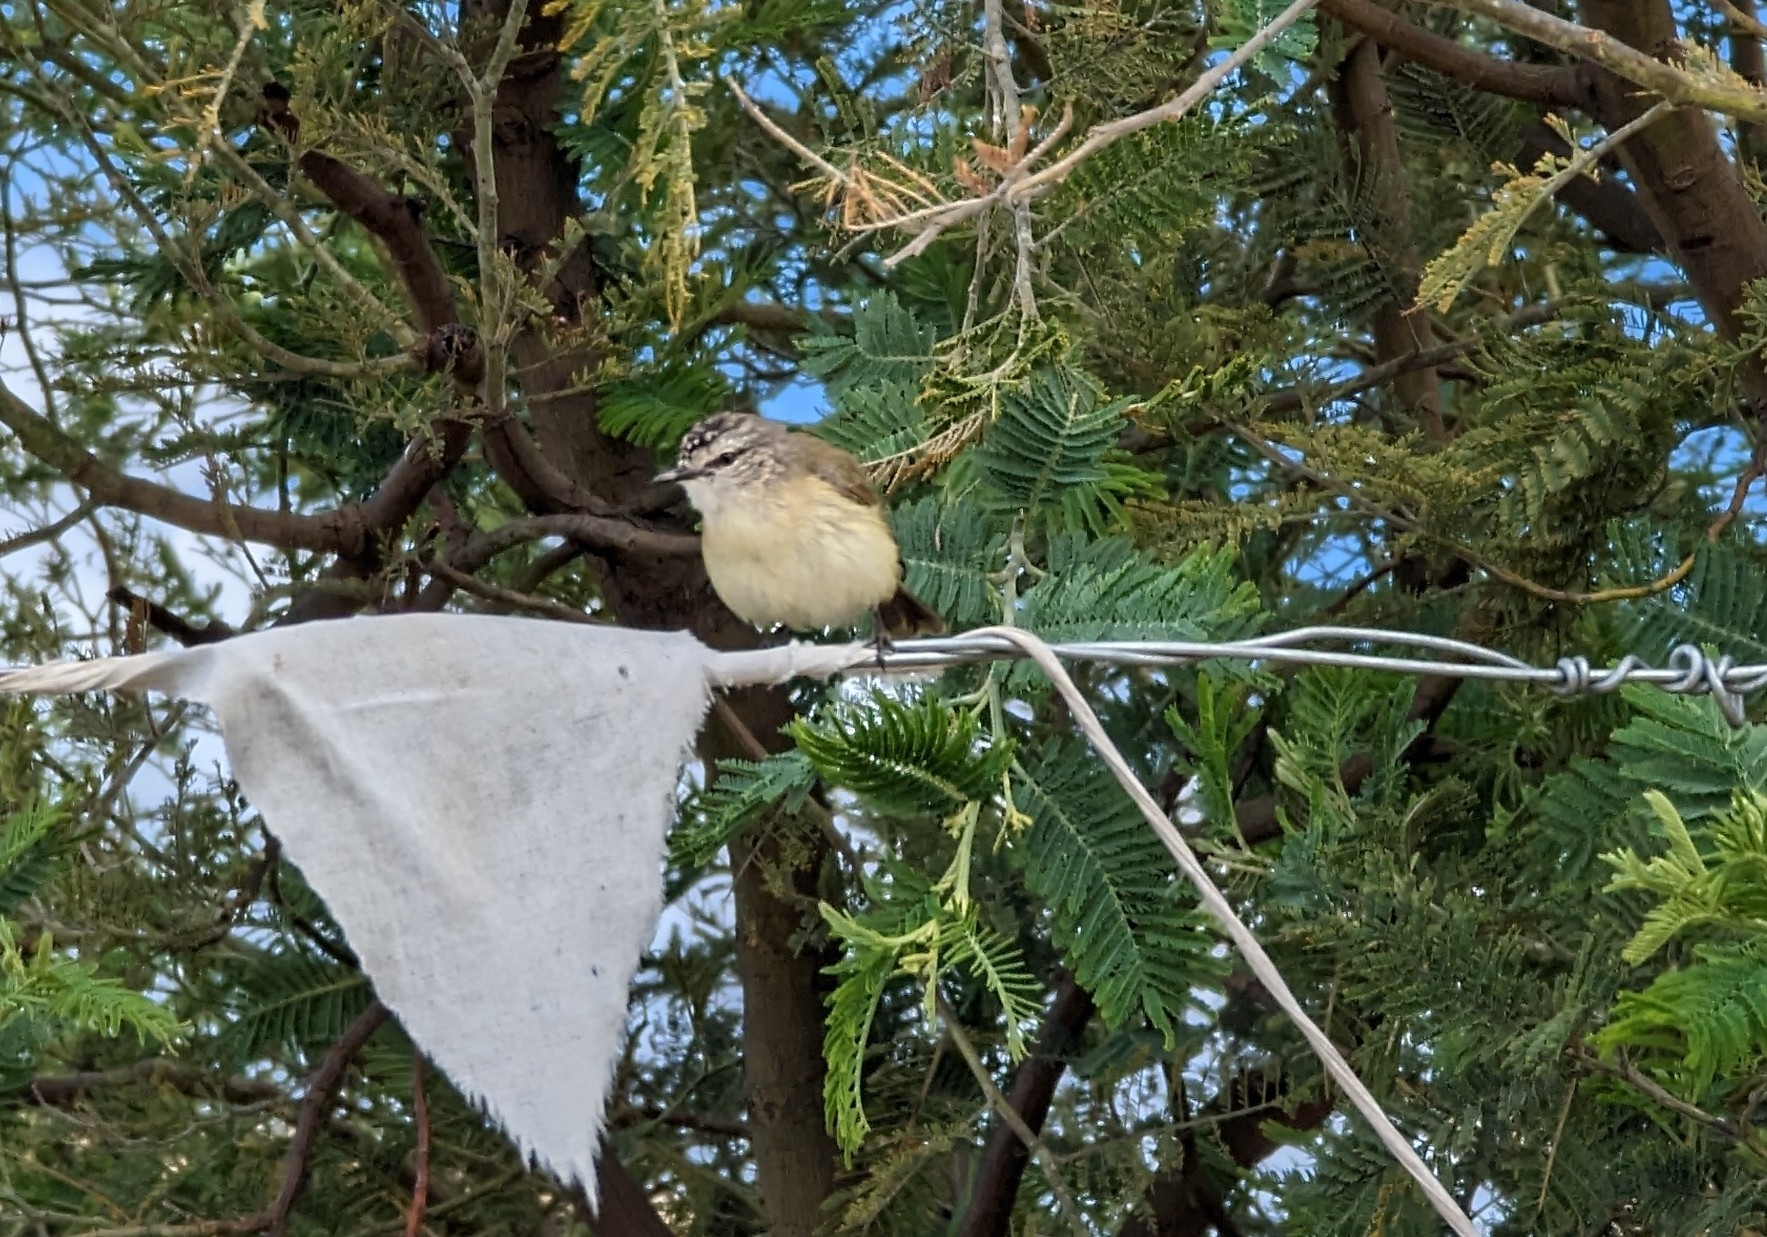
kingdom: Animalia
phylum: Chordata
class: Aves
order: Passeriformes
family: Acanthizidae
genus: Acanthiza
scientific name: Acanthiza chrysorrhoa
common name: Yellow-rumped thornbill
